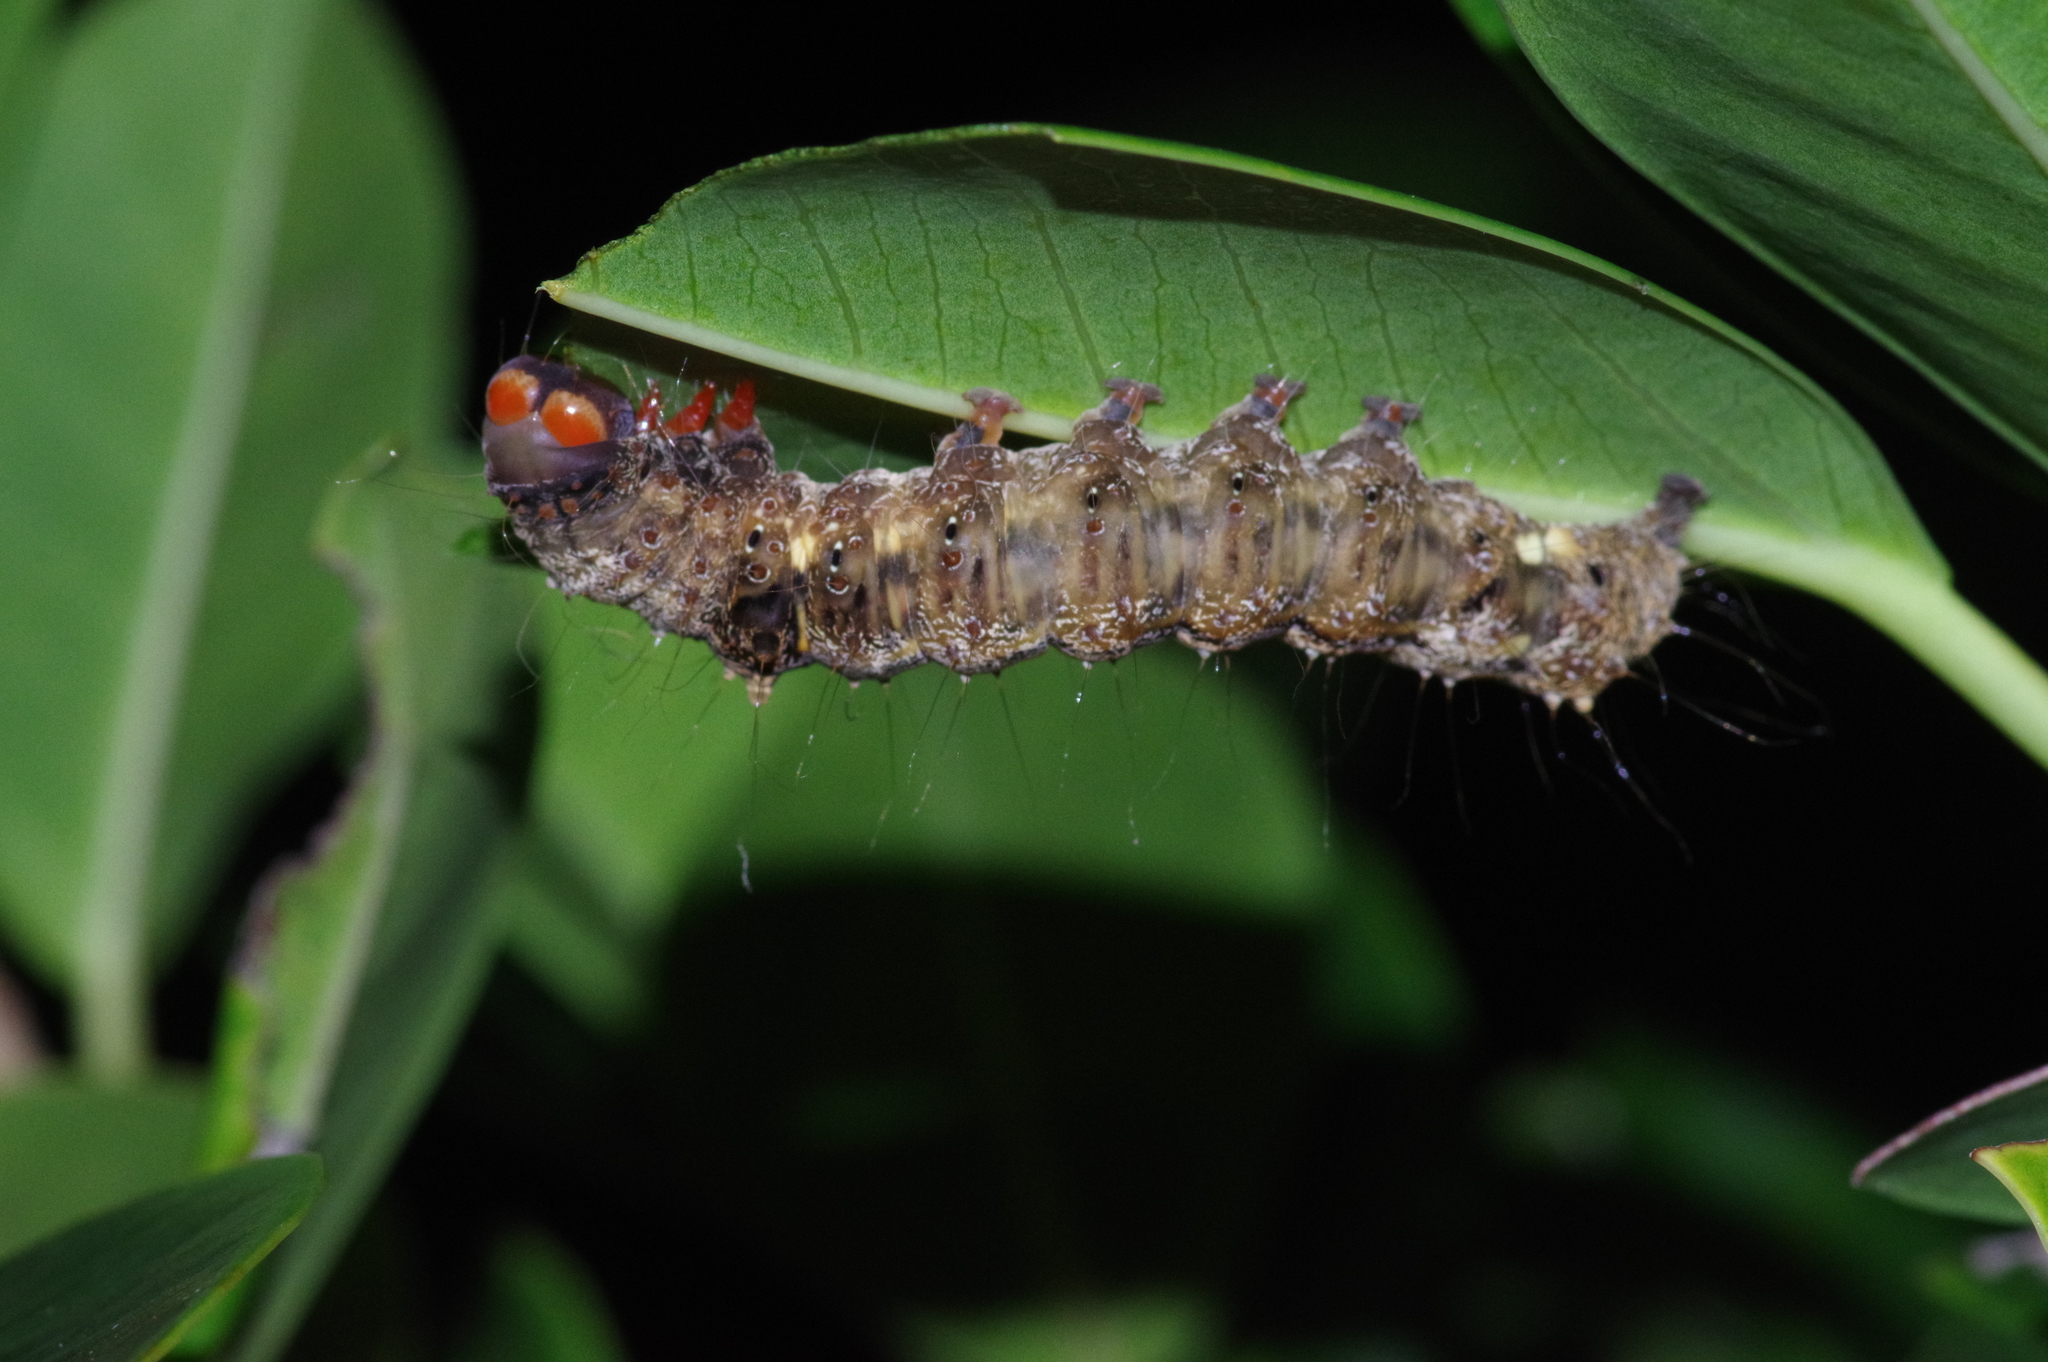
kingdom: Animalia
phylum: Arthropoda
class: Insecta
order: Lepidoptera
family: Erebidae
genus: Asota
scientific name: Asota heliconia
